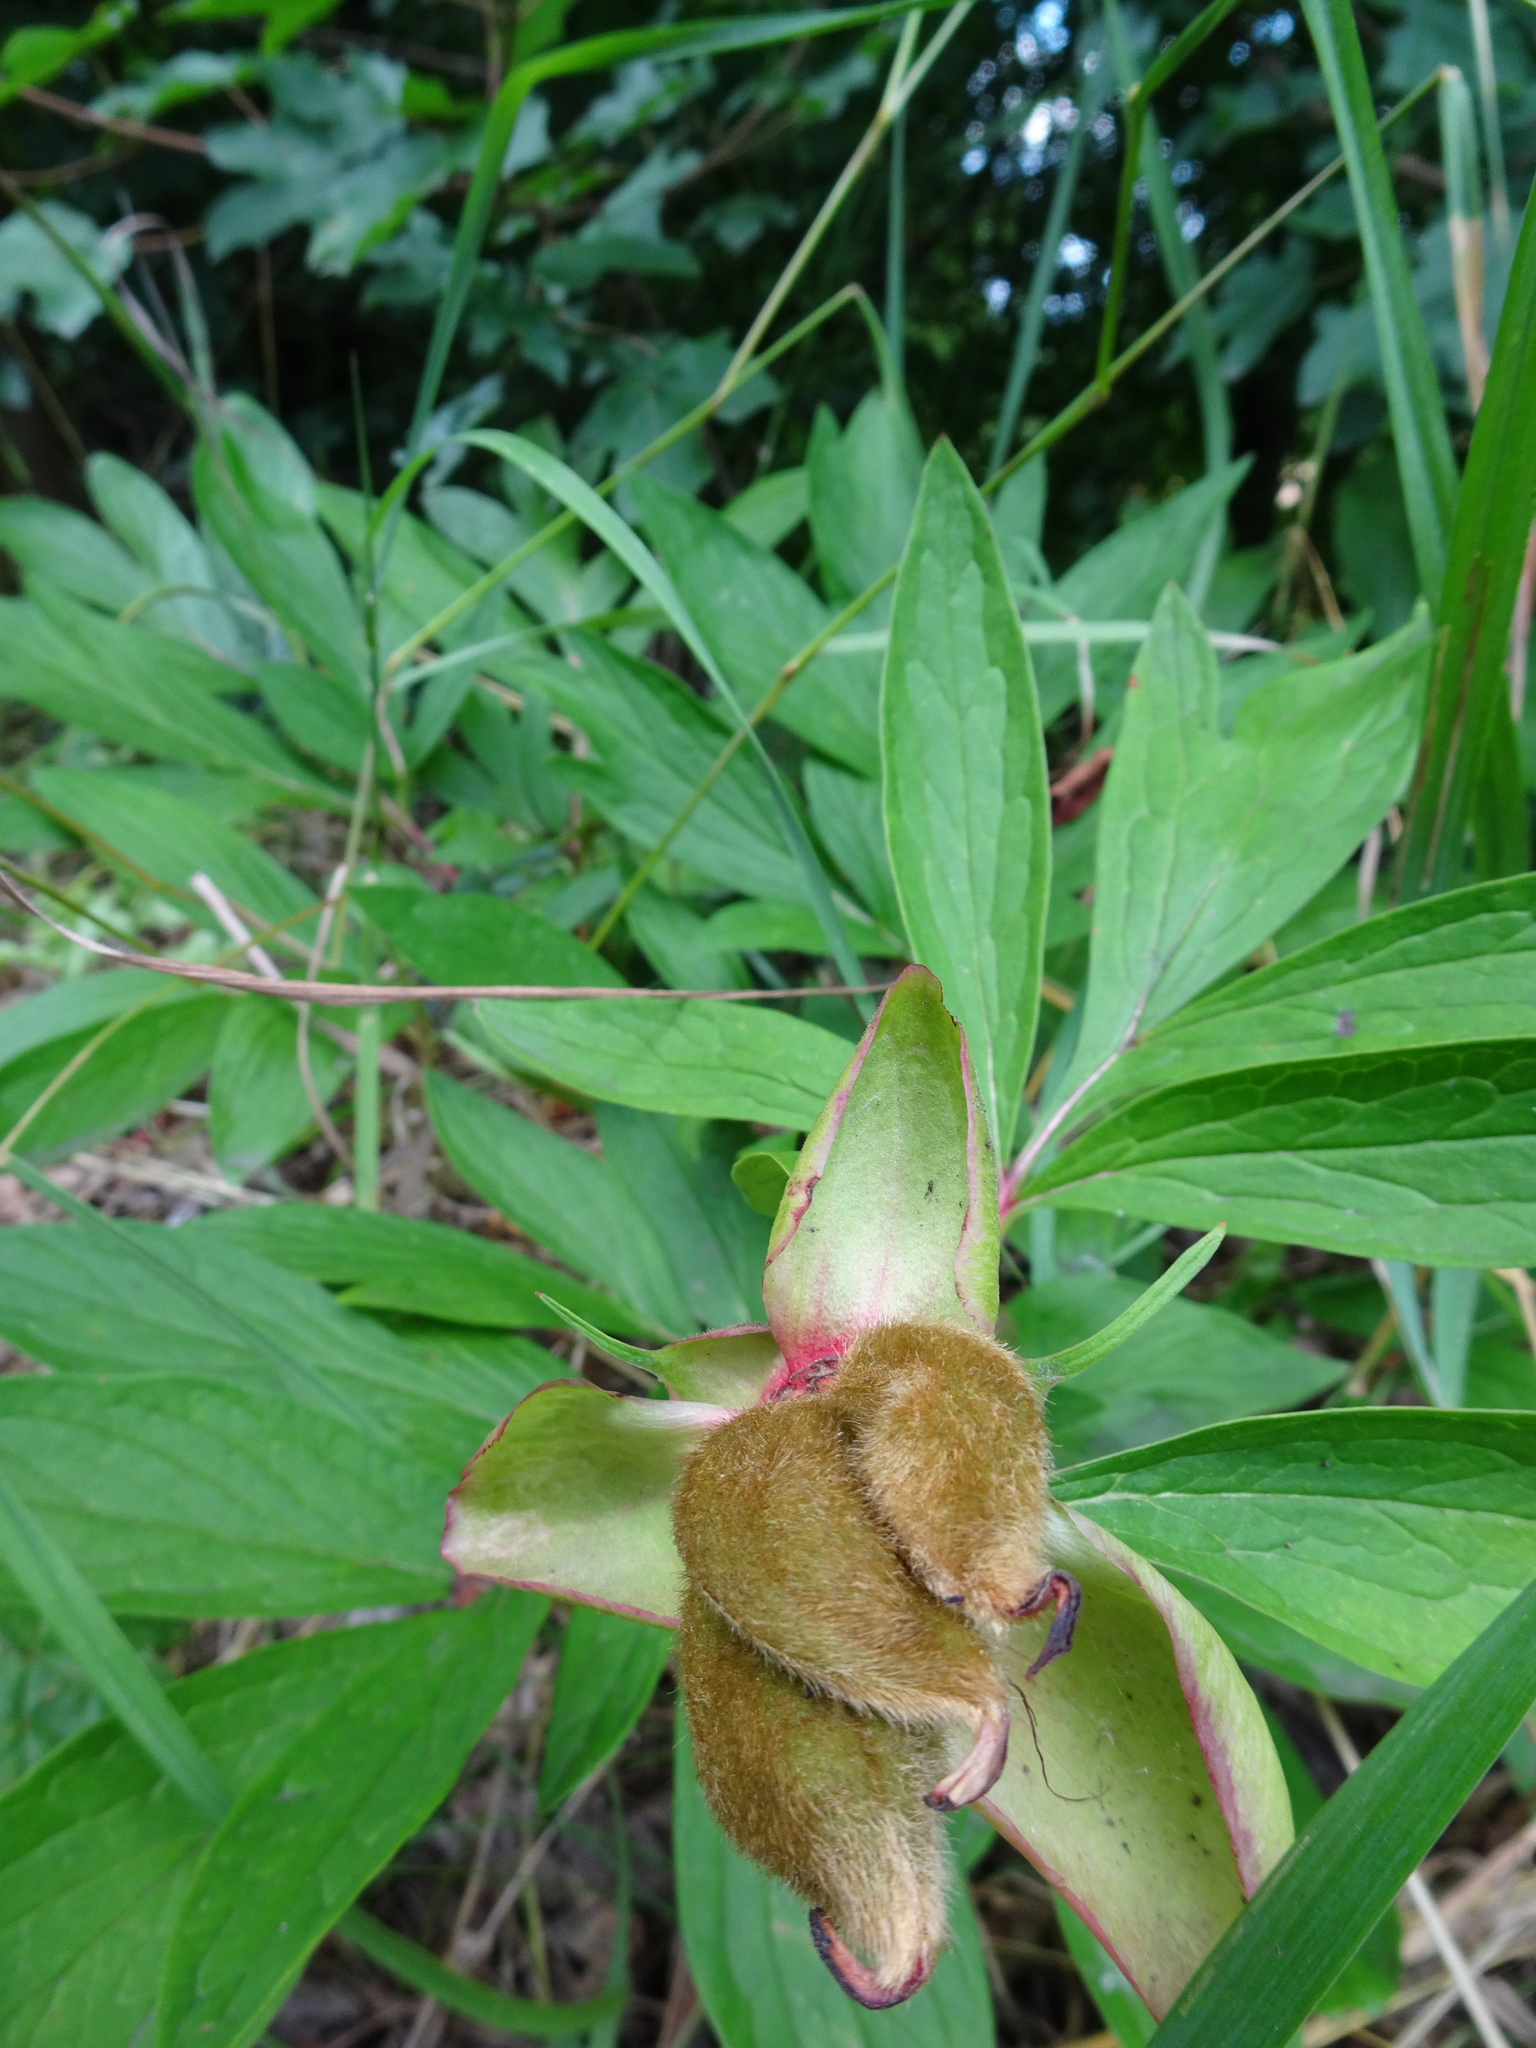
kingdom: Plantae
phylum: Tracheophyta
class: Magnoliopsida
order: Saxifragales
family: Paeoniaceae
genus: Paeonia
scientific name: Paeonia officinalis
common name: Common peony
